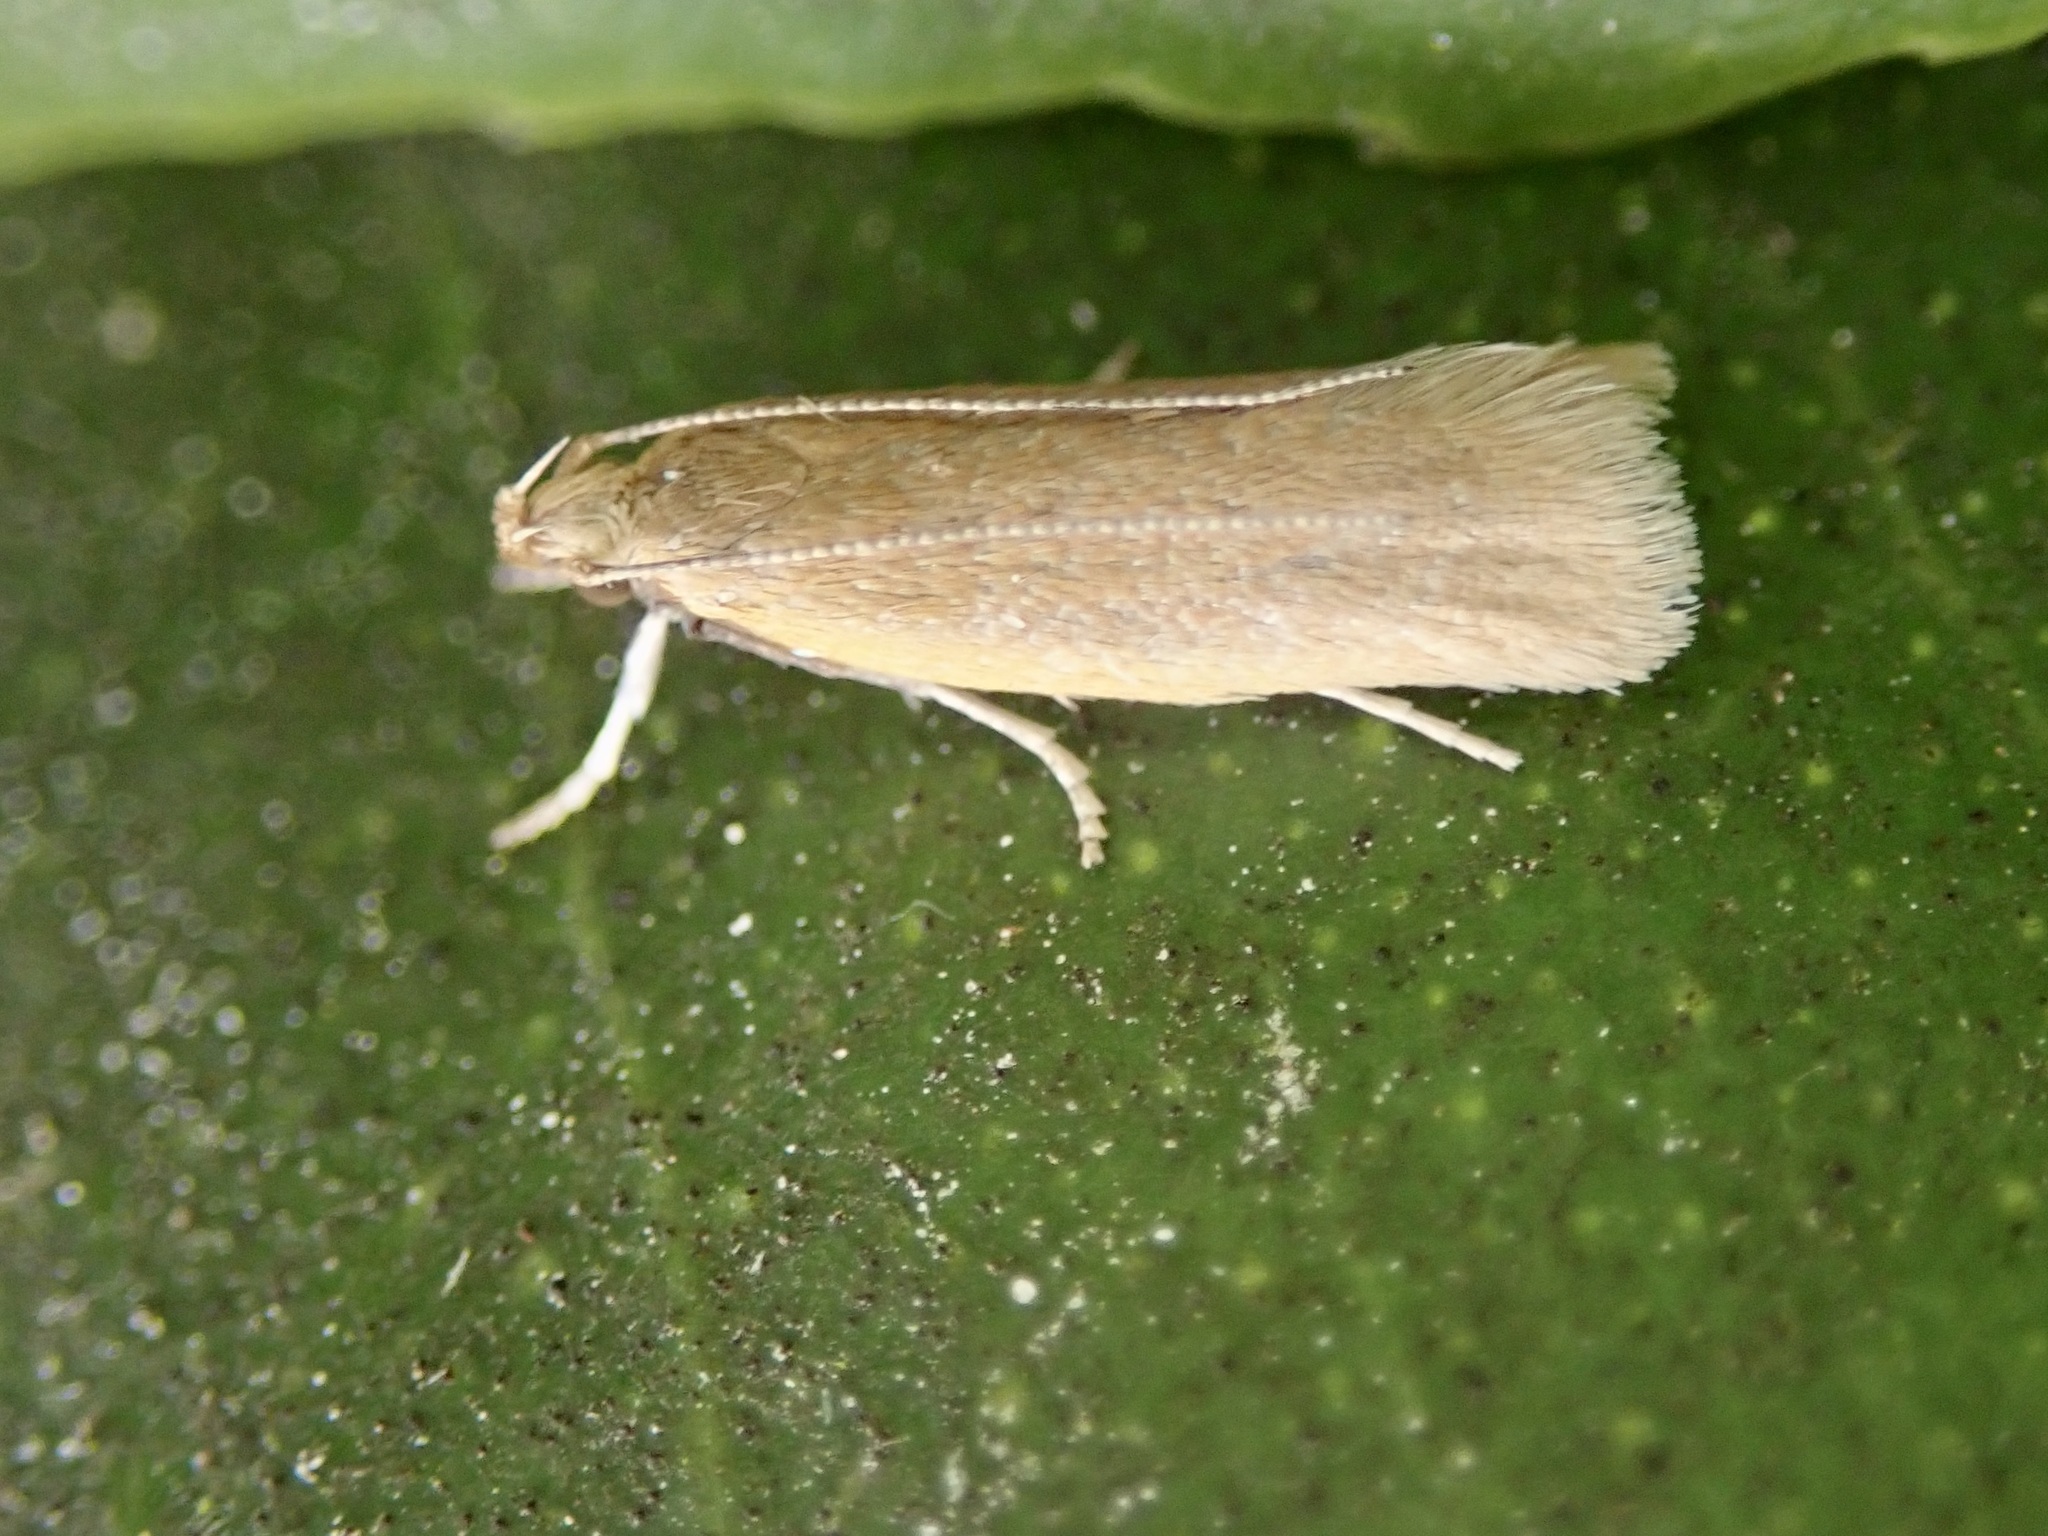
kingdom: Animalia
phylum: Arthropoda
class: Insecta
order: Lepidoptera
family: Oecophoridae
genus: Gymnobathra
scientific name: Gymnobathra parca
